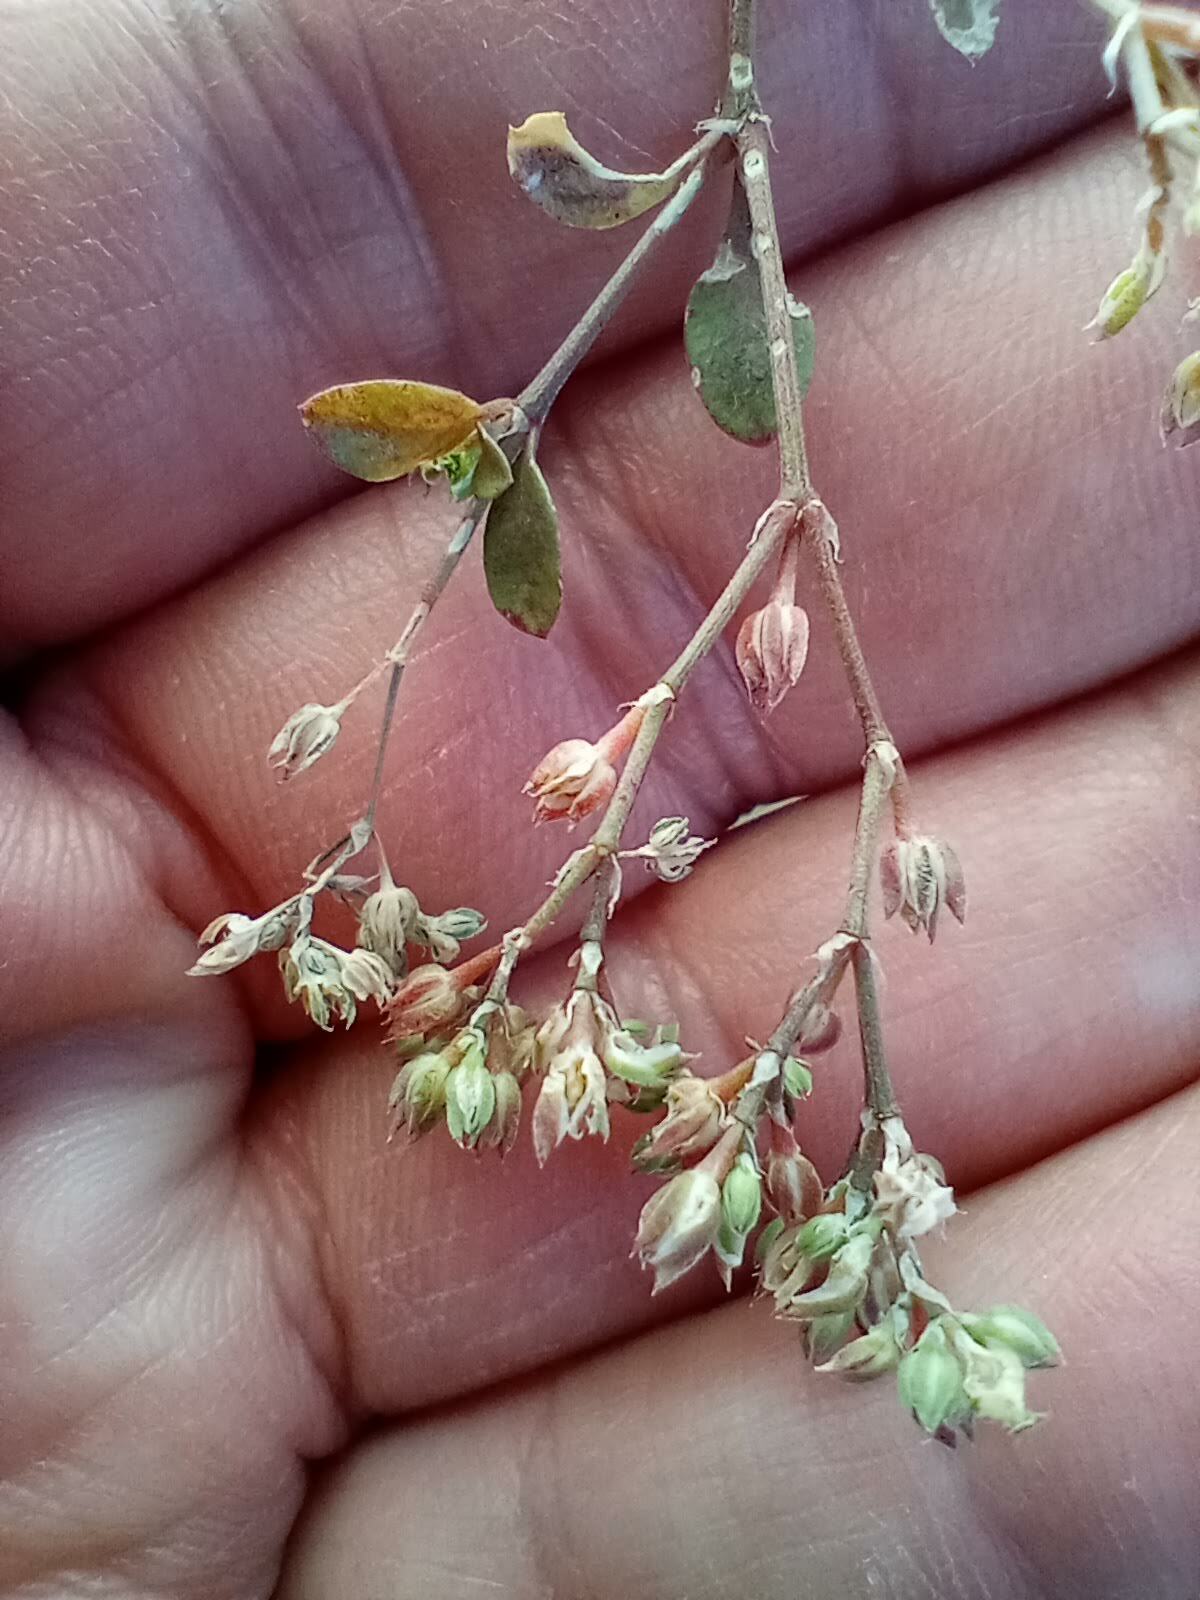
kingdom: Plantae
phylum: Tracheophyta
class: Magnoliopsida
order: Caryophyllales
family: Caryophyllaceae
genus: Polycarpon
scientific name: Polycarpon tetraphyllum
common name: Four-leaved all-seed
